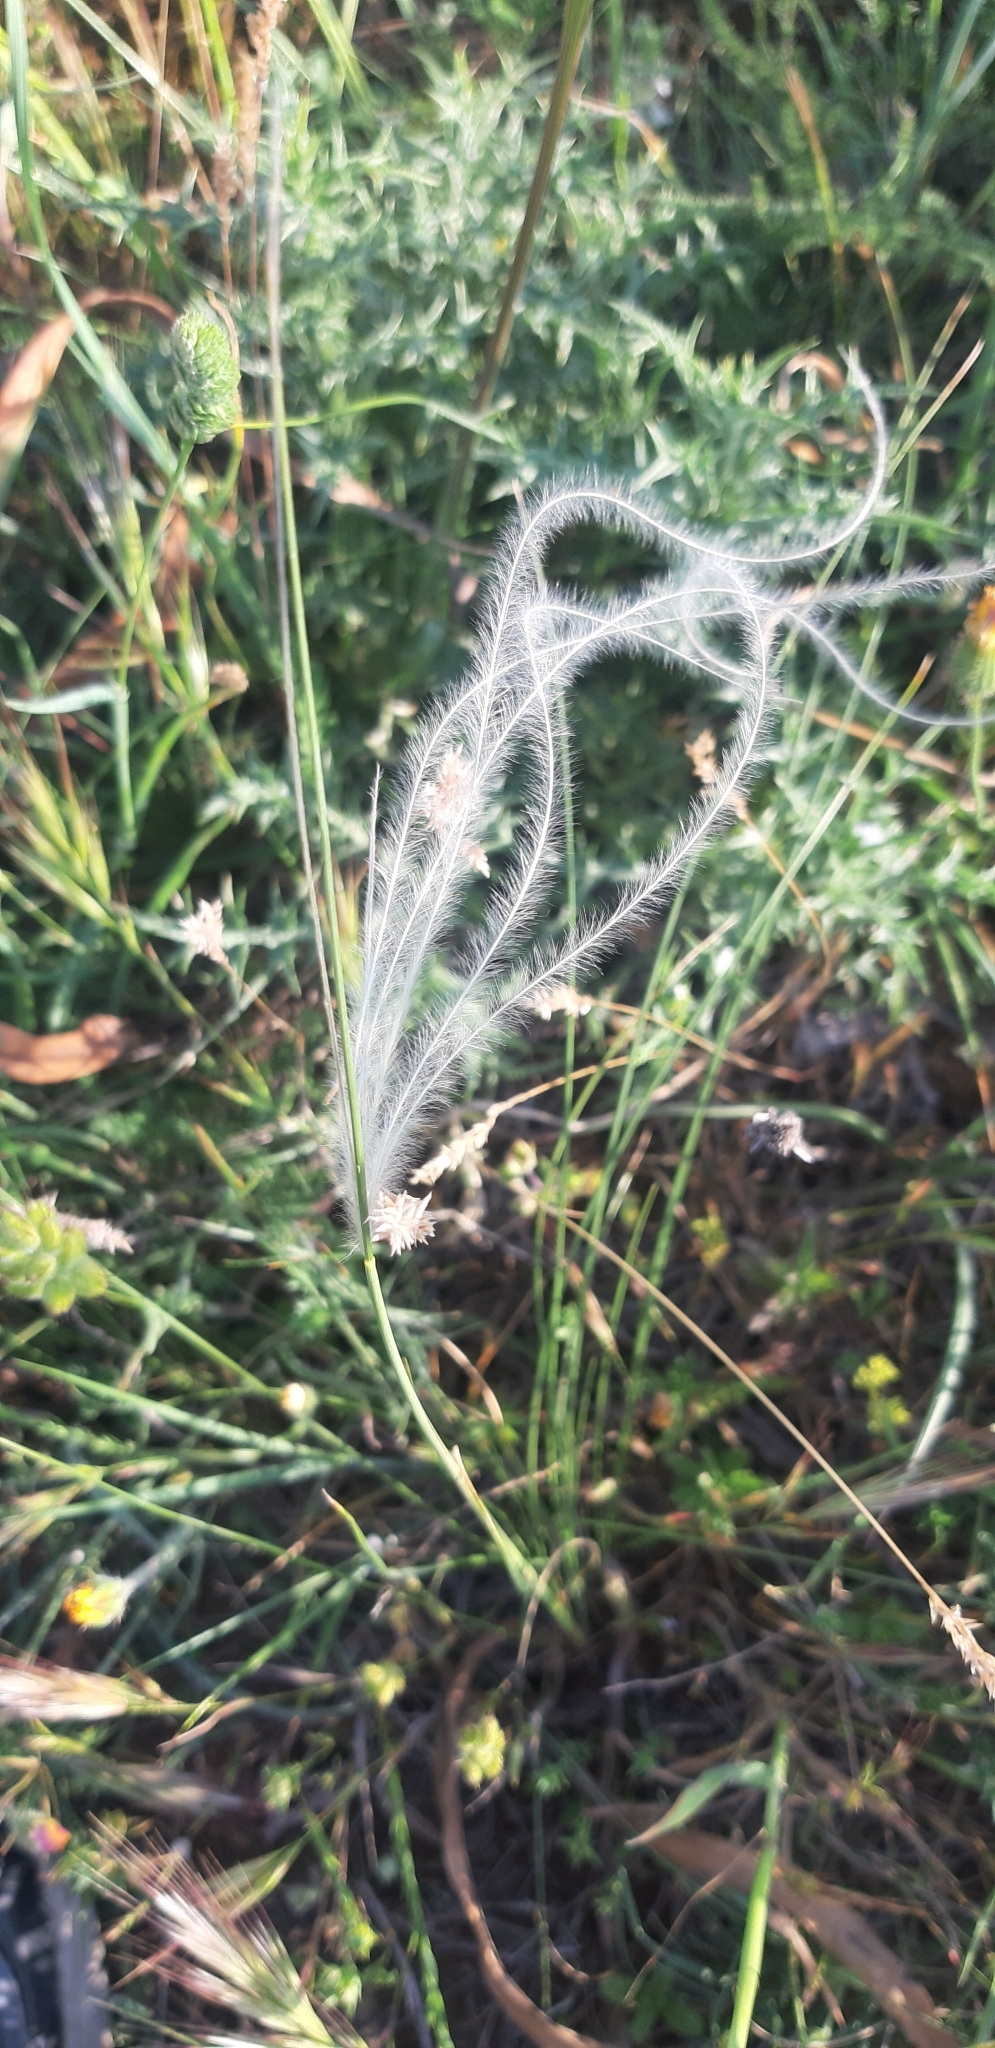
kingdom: Plantae
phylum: Tracheophyta
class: Liliopsida
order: Poales
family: Poaceae
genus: Stipa
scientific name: Stipa austroitalica
